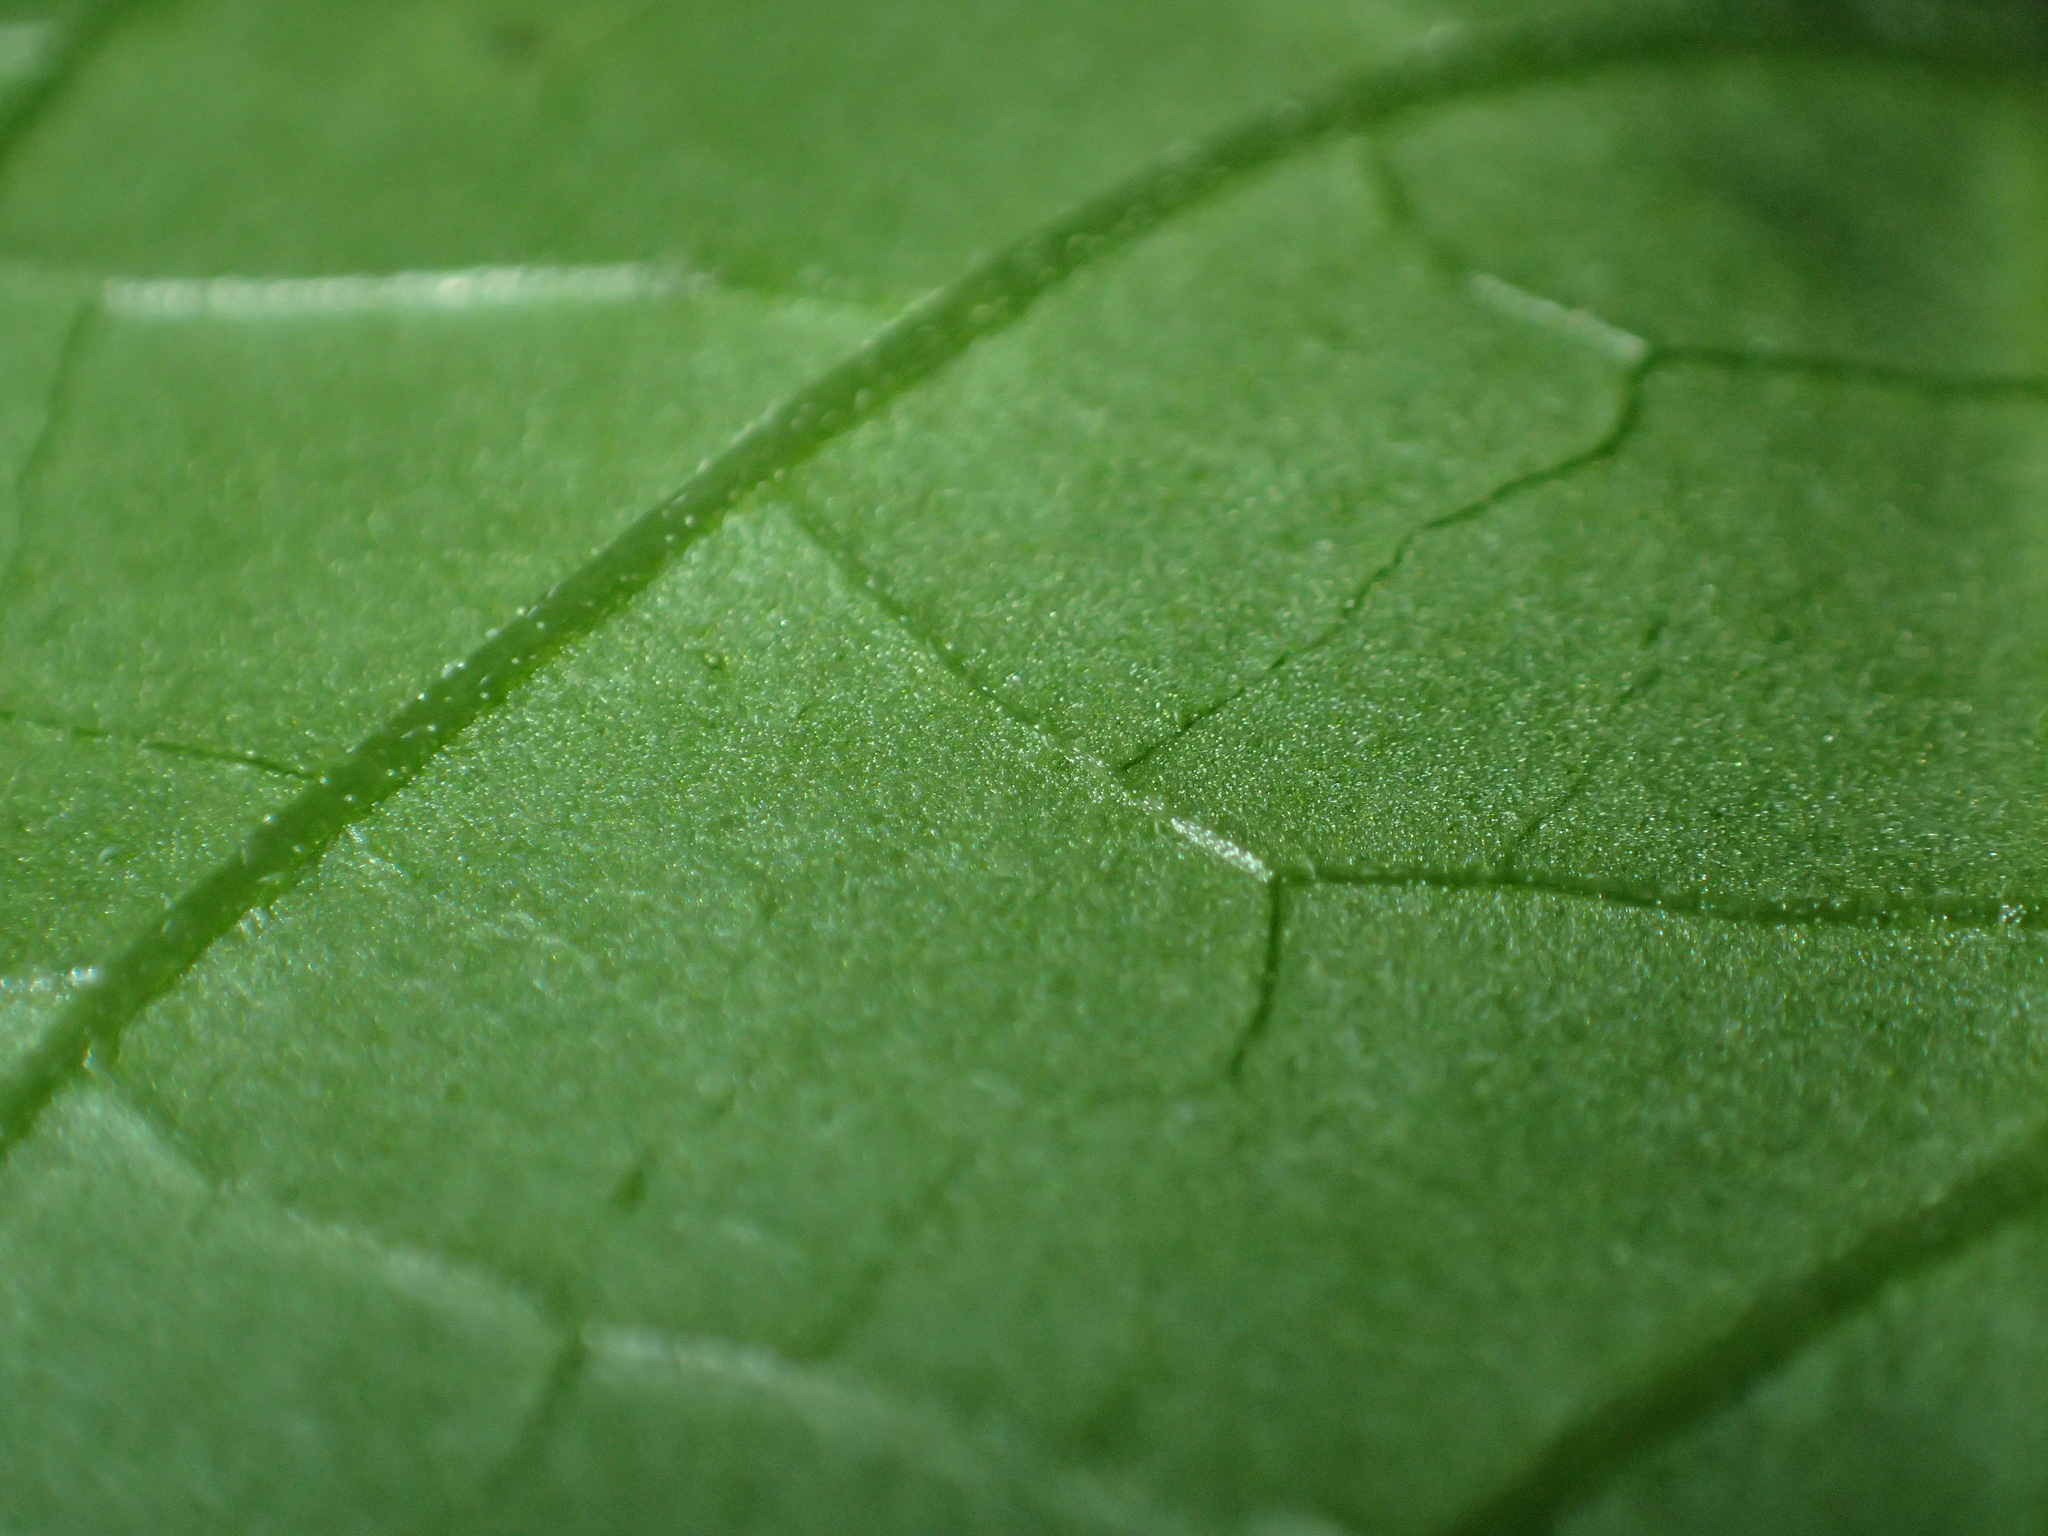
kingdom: Plantae
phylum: Tracheophyta
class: Magnoliopsida
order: Solanales
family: Solanaceae
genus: Solanum
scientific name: Solanum nigrum
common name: Black nightshade
